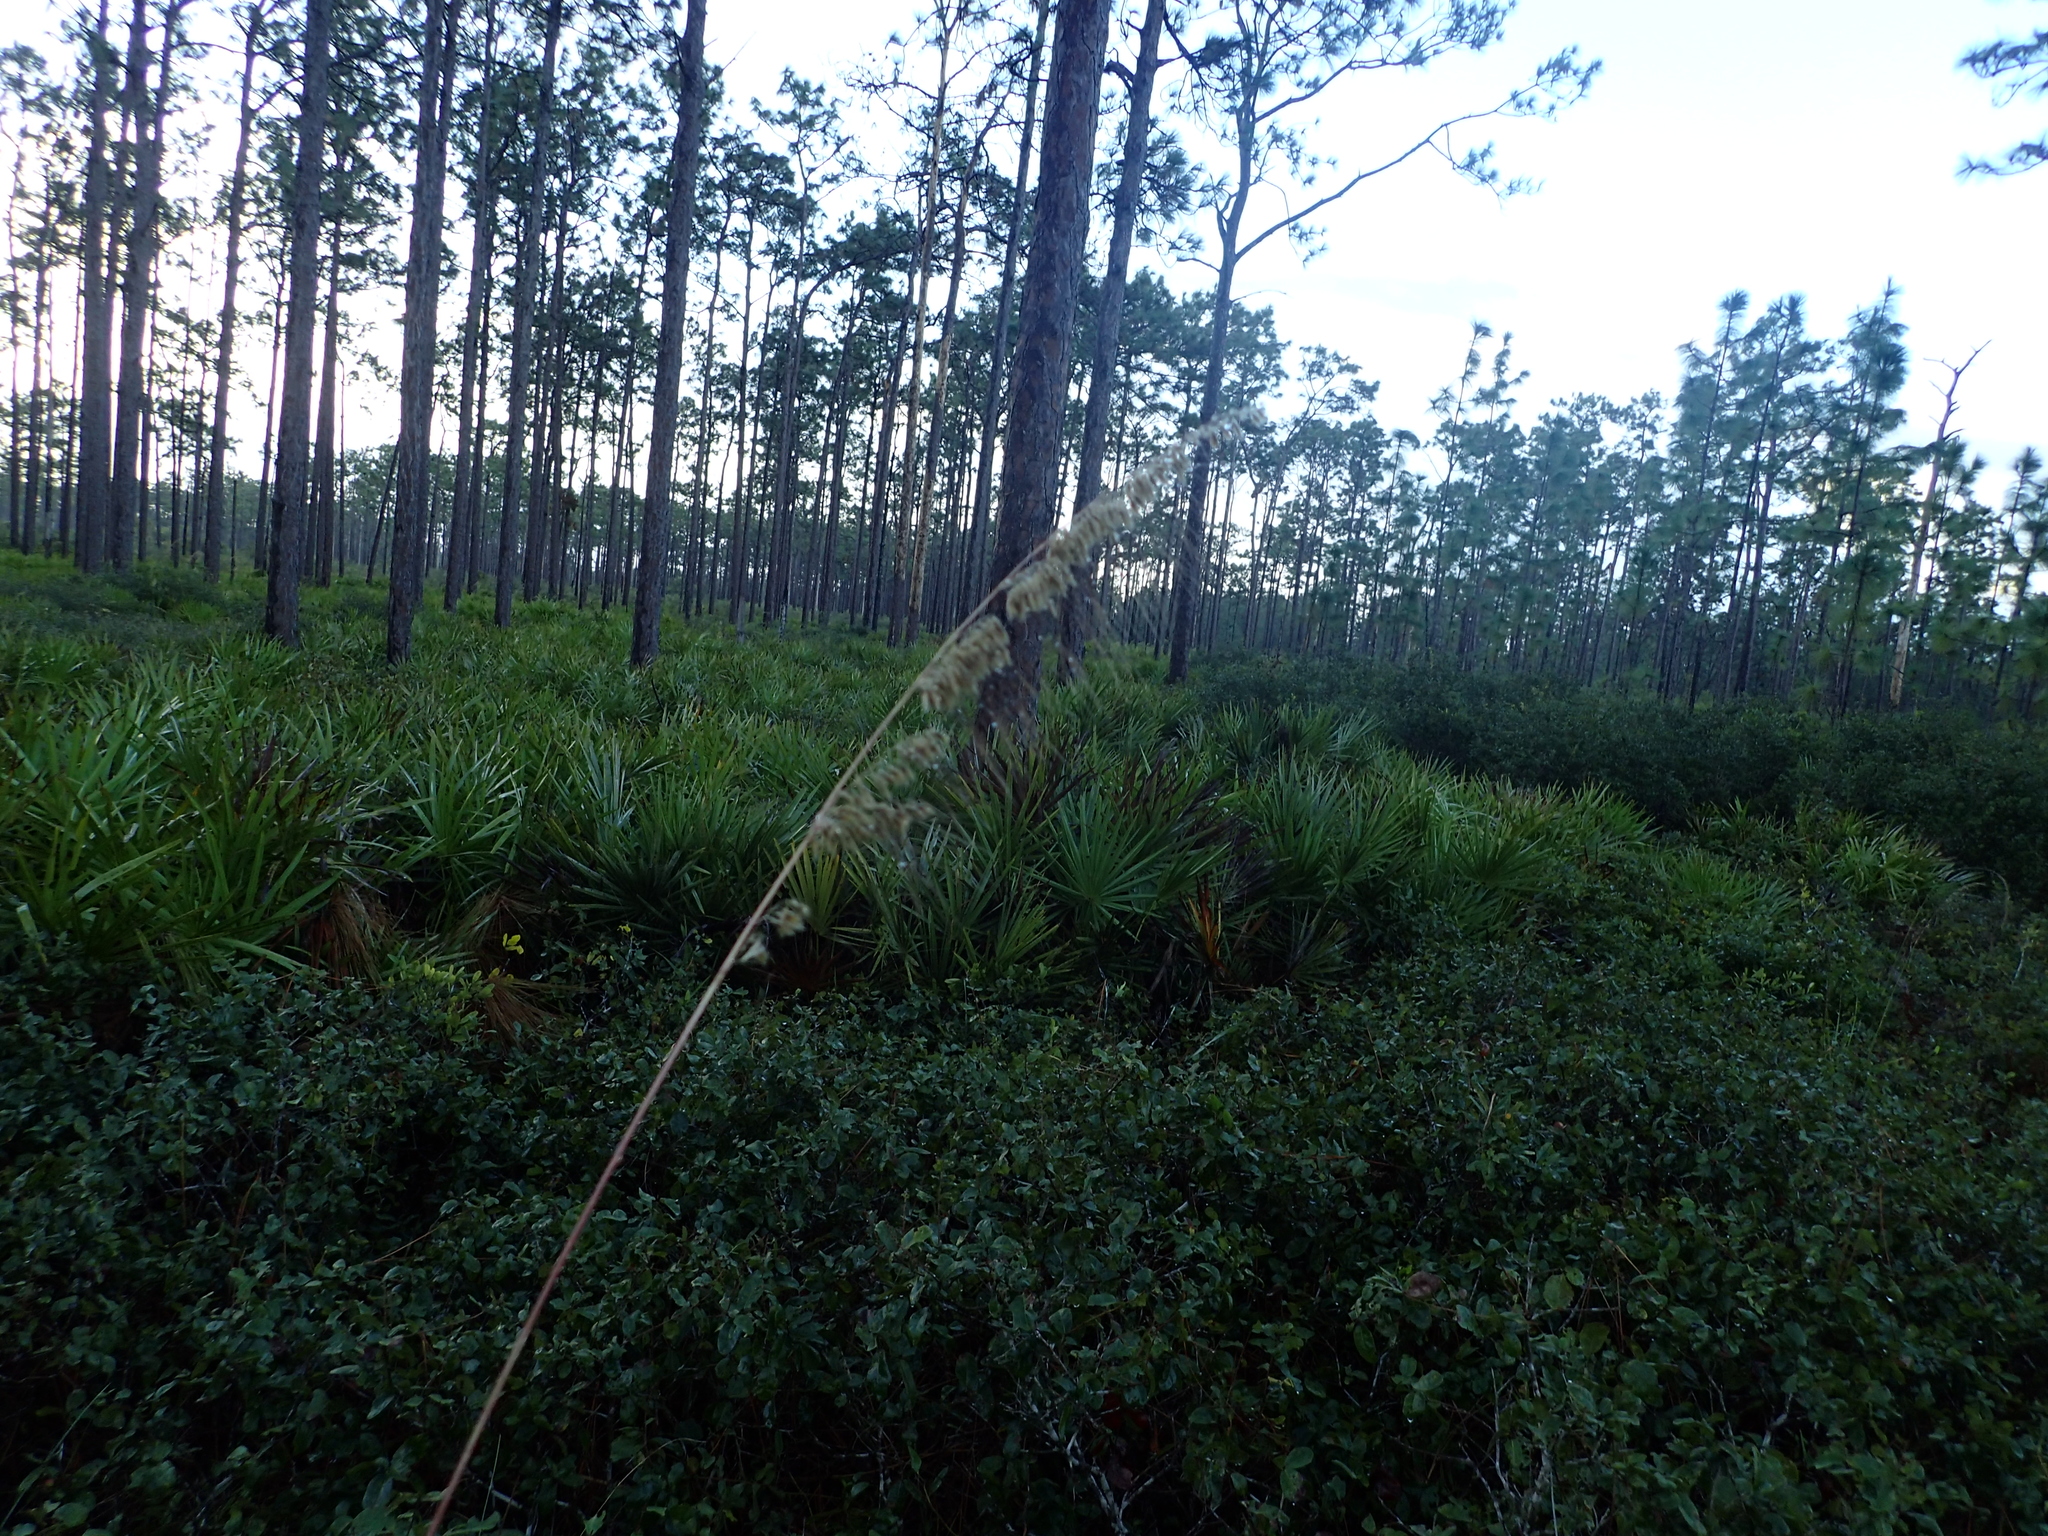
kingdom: Plantae
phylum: Tracheophyta
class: Liliopsida
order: Poales
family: Poaceae
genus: Sorghastrum
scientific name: Sorghastrum secundum
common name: Lopsided indian grass
